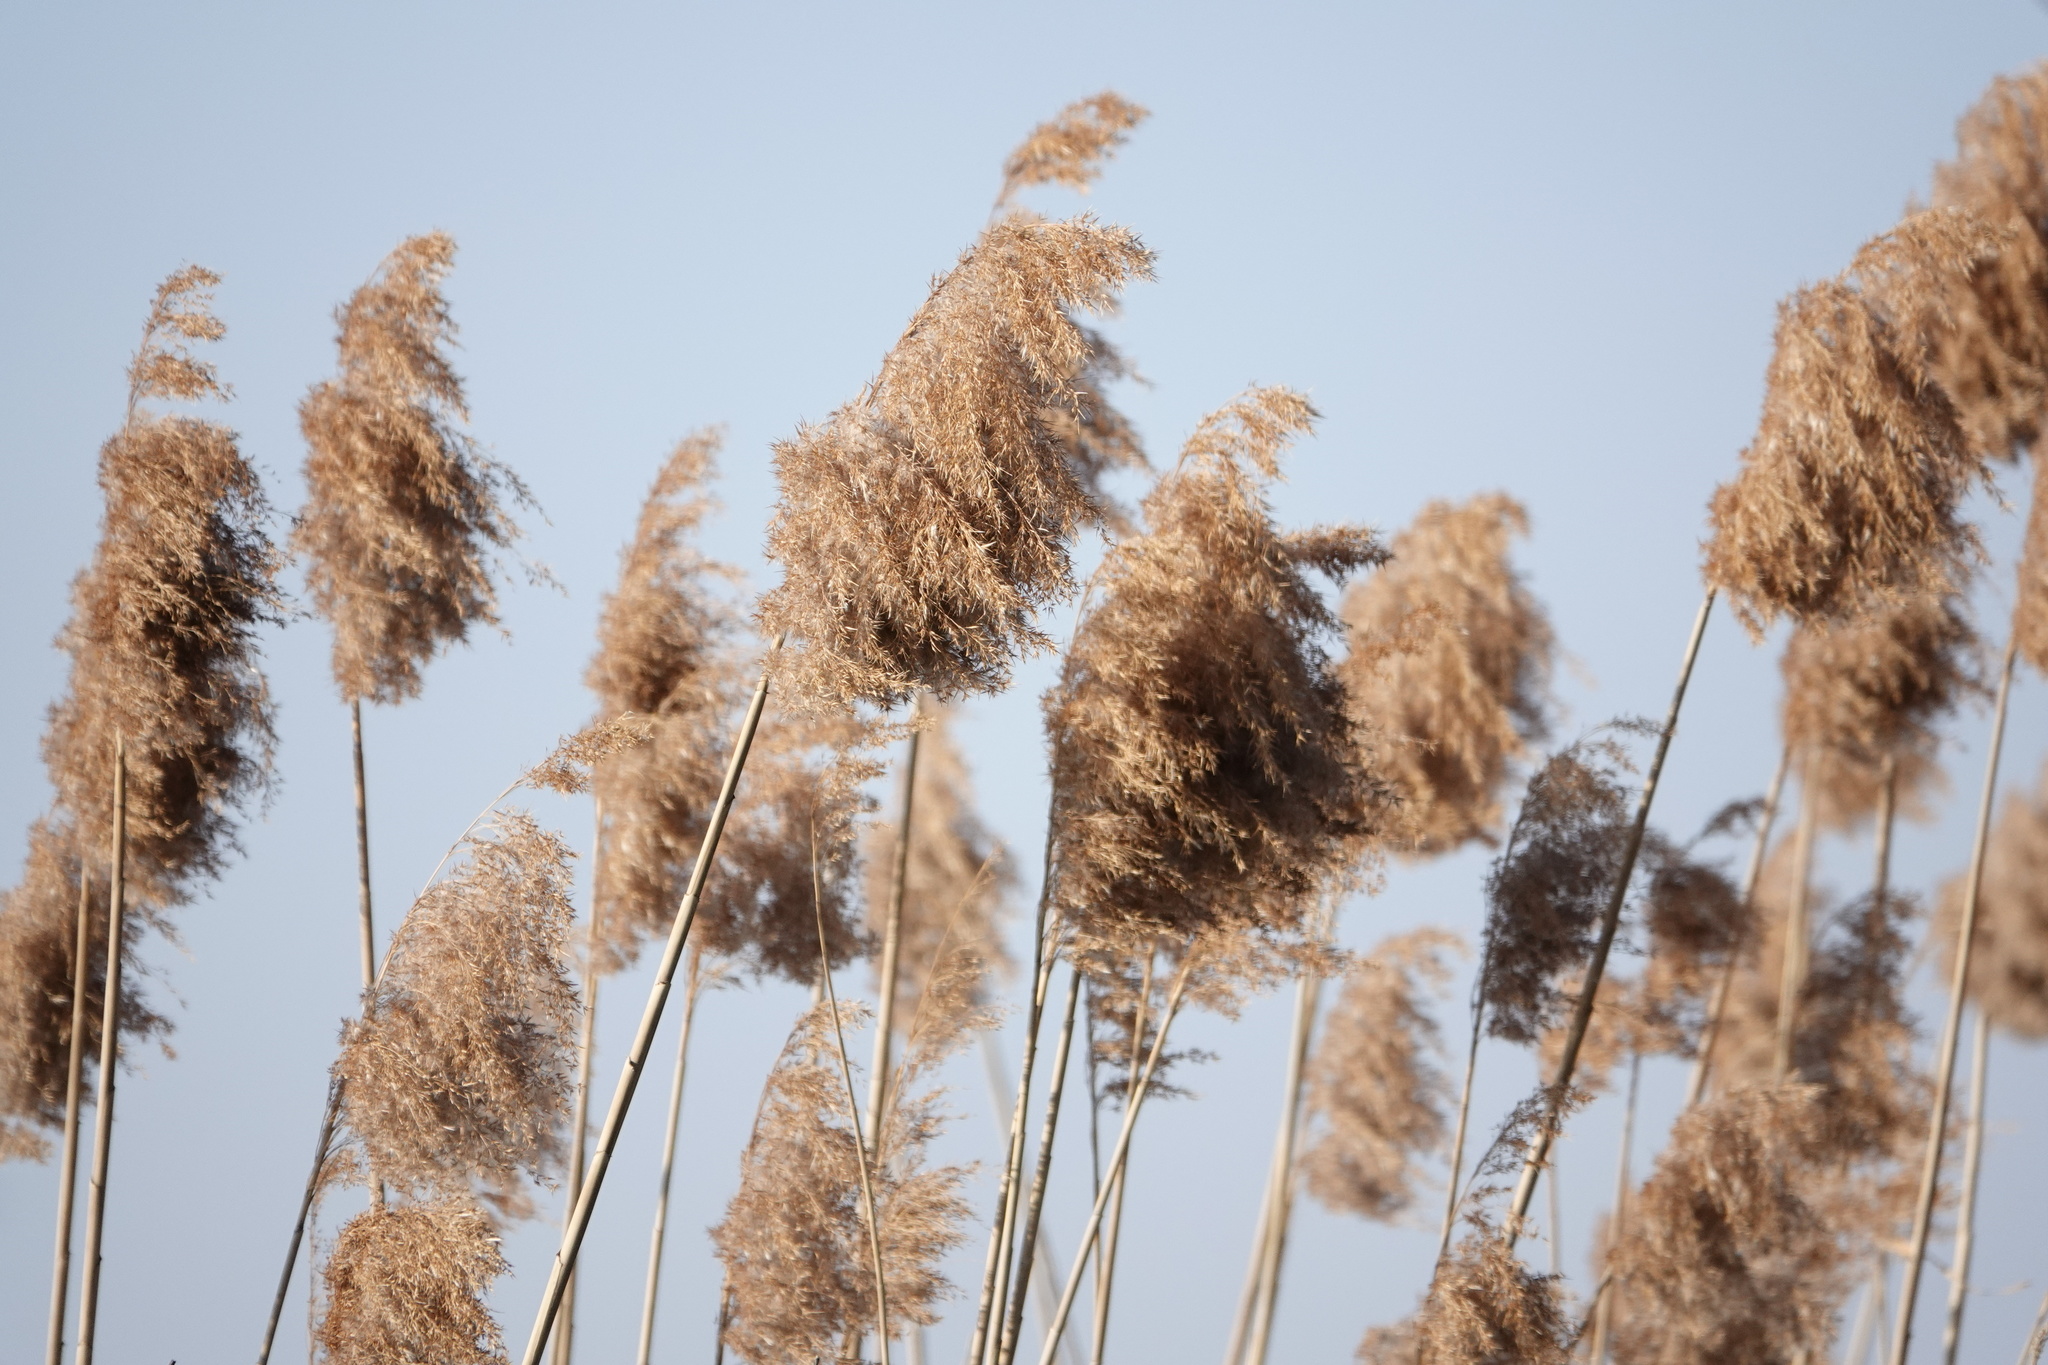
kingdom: Plantae
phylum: Tracheophyta
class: Liliopsida
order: Poales
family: Poaceae
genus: Phragmites
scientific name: Phragmites australis
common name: Common reed
